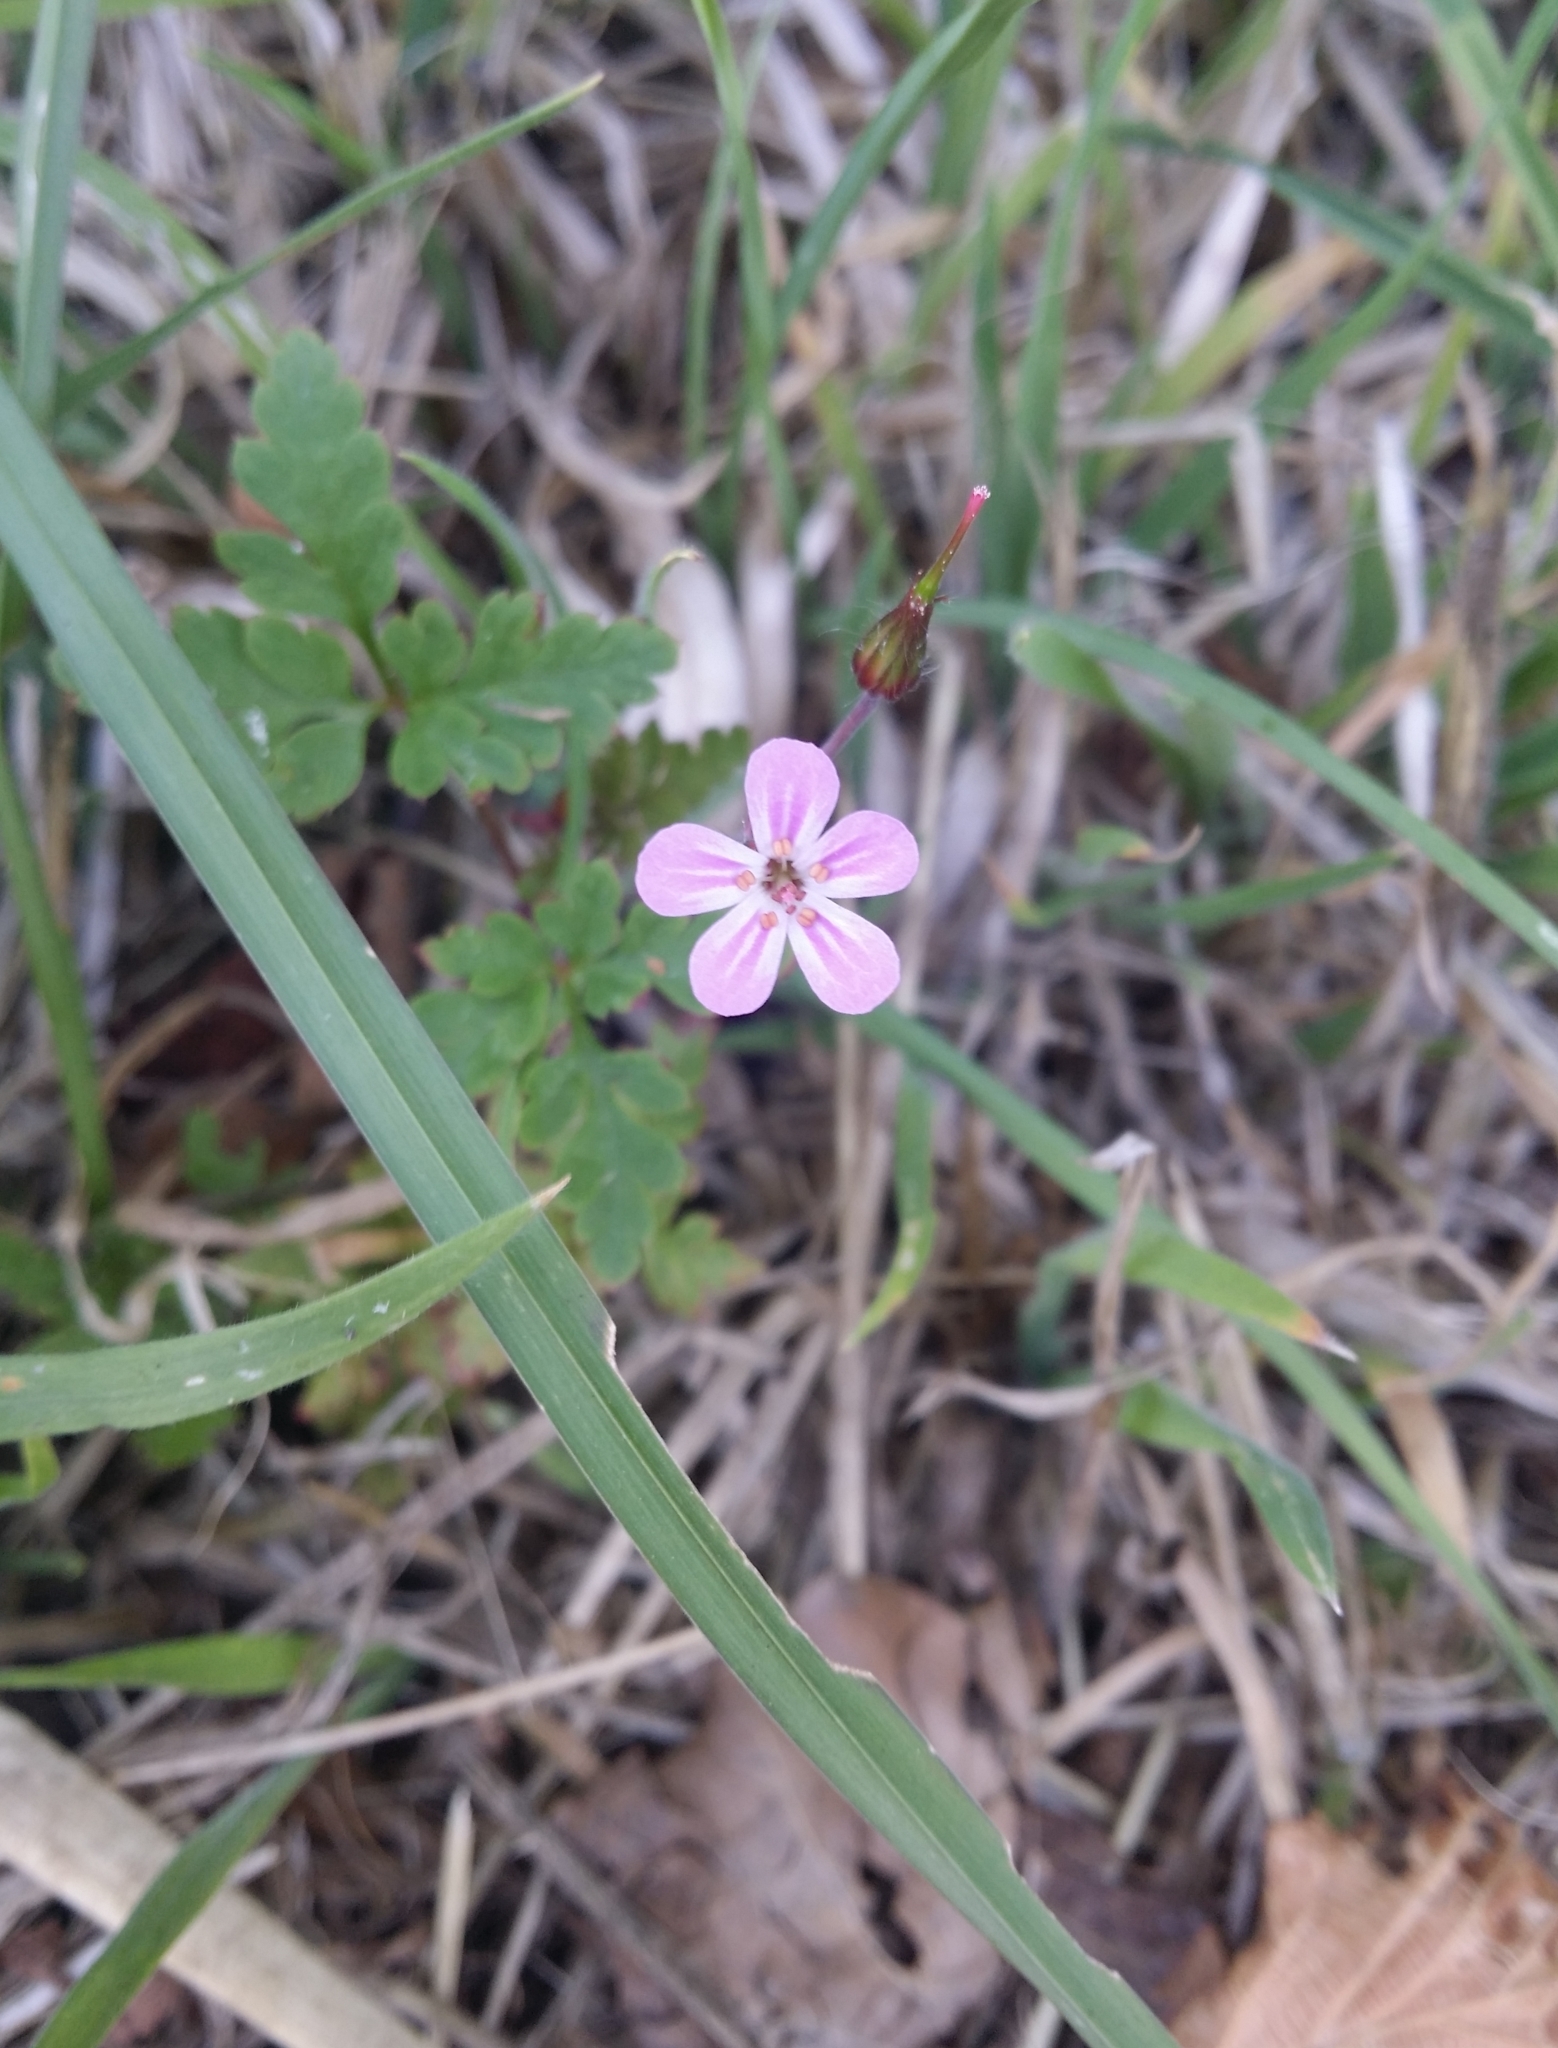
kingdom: Plantae
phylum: Tracheophyta
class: Magnoliopsida
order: Geraniales
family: Geraniaceae
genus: Geranium
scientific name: Geranium robertianum
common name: Herb-robert
